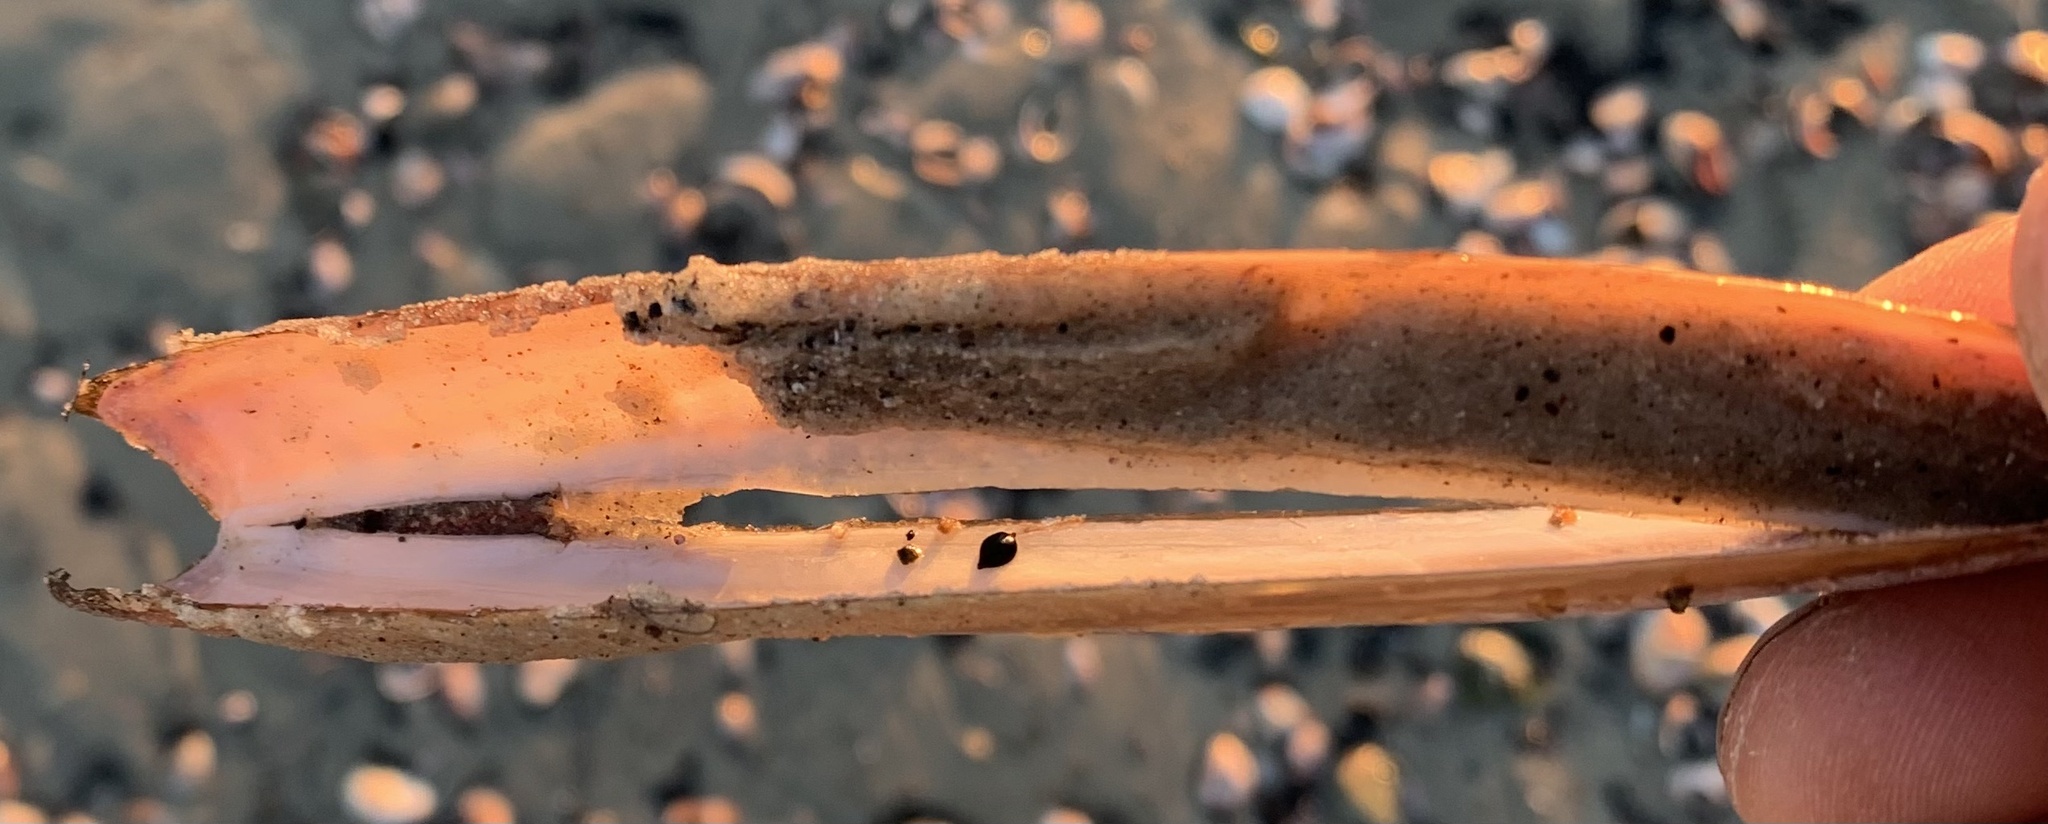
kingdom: Animalia
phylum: Mollusca
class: Bivalvia
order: Adapedonta
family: Pharidae
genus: Ensis
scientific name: Ensis leei
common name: American jack knife clam
